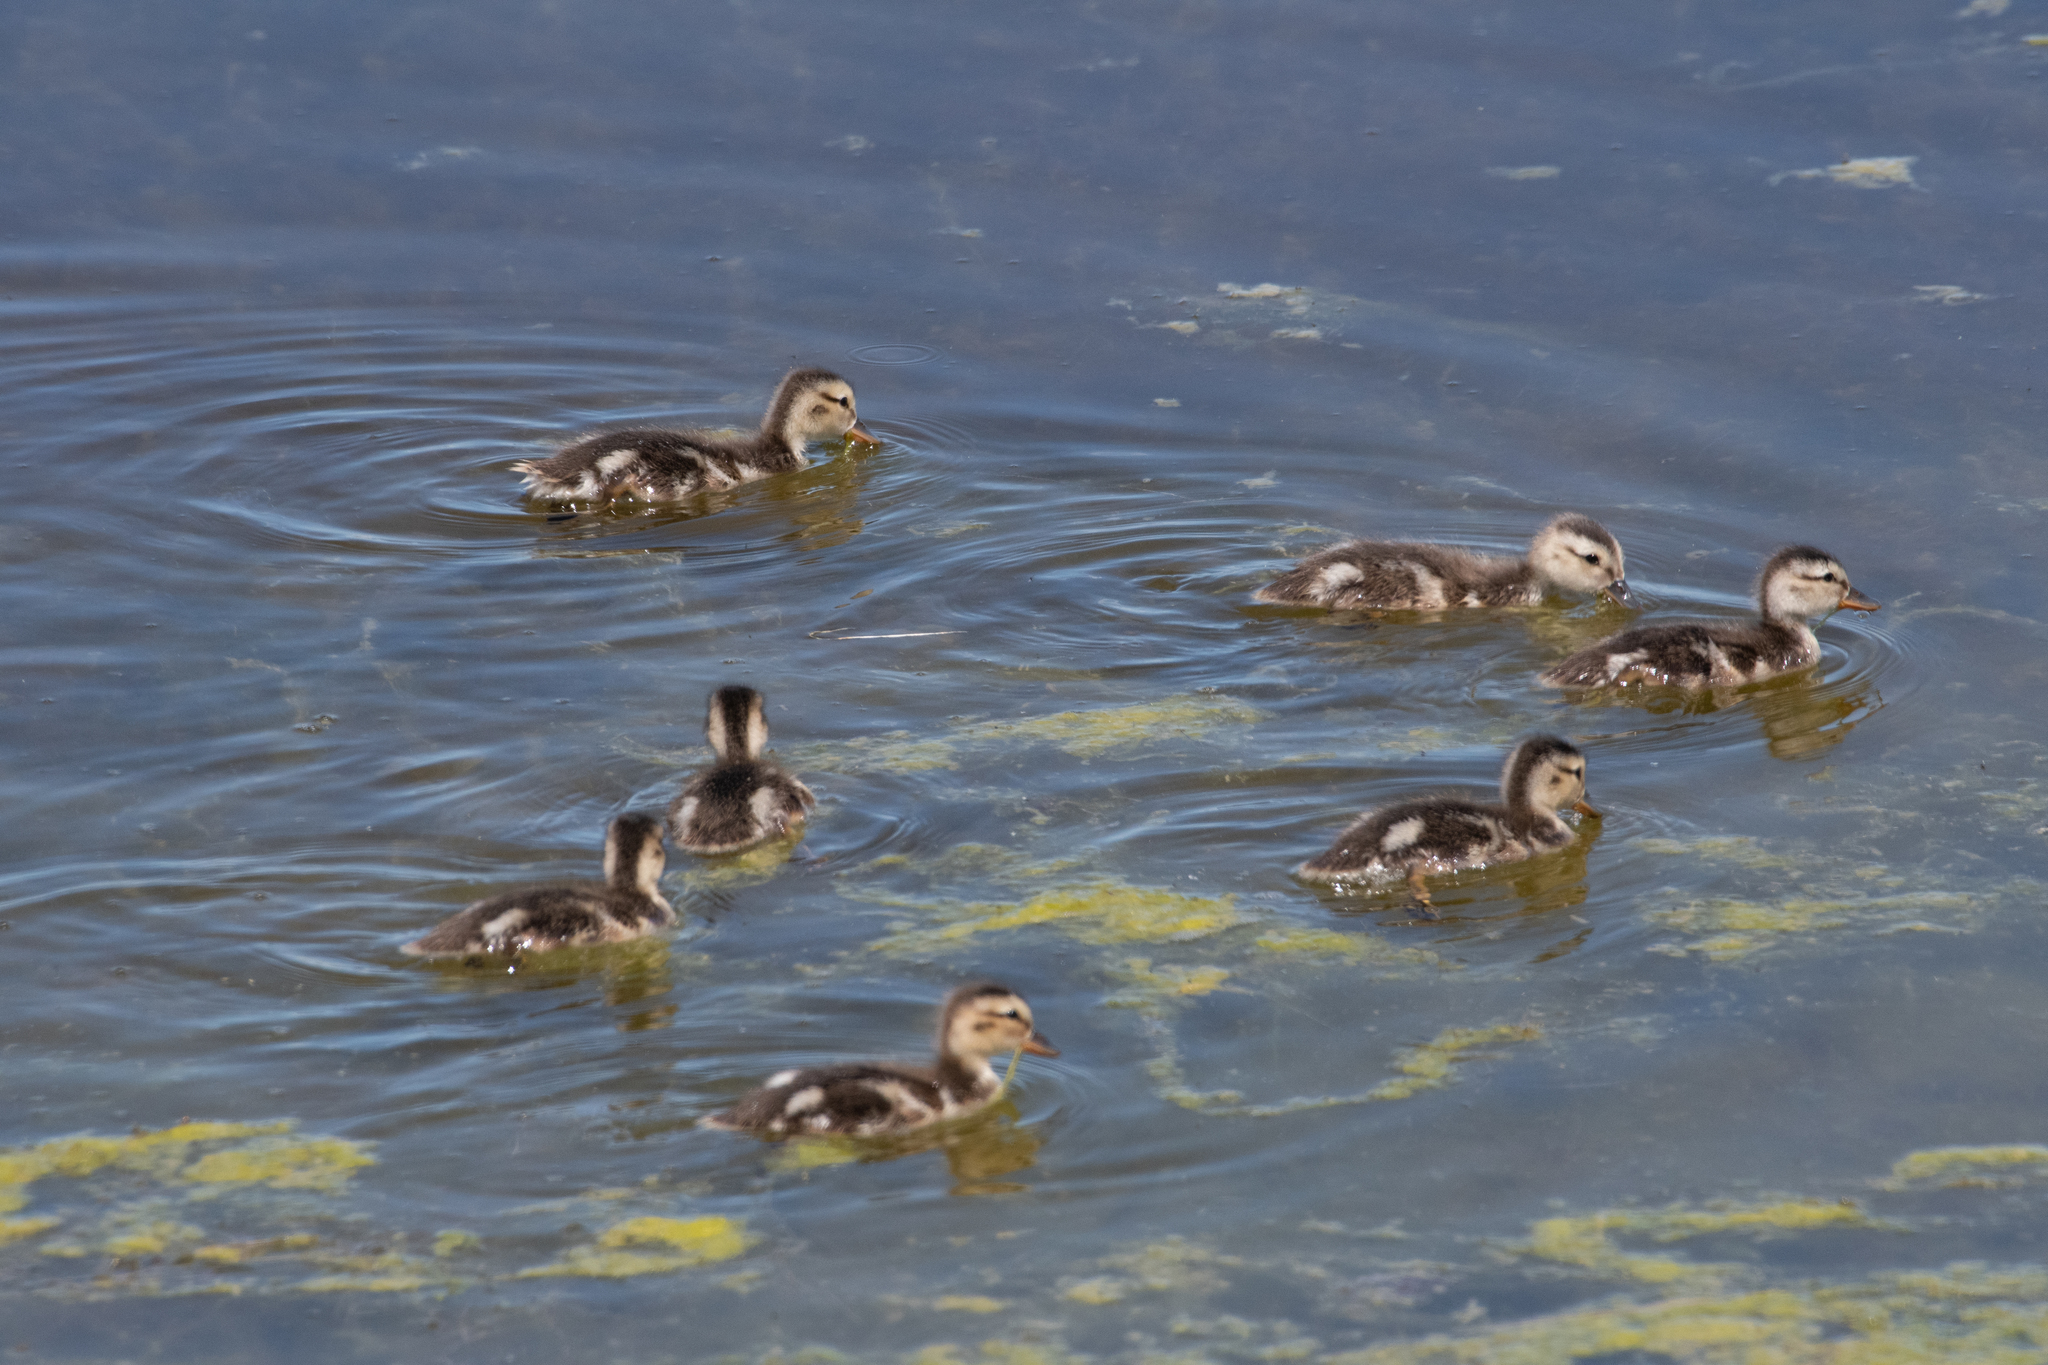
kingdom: Animalia
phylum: Chordata
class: Aves
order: Anseriformes
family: Anatidae
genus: Anas
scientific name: Anas platyrhynchos
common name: Mallard
